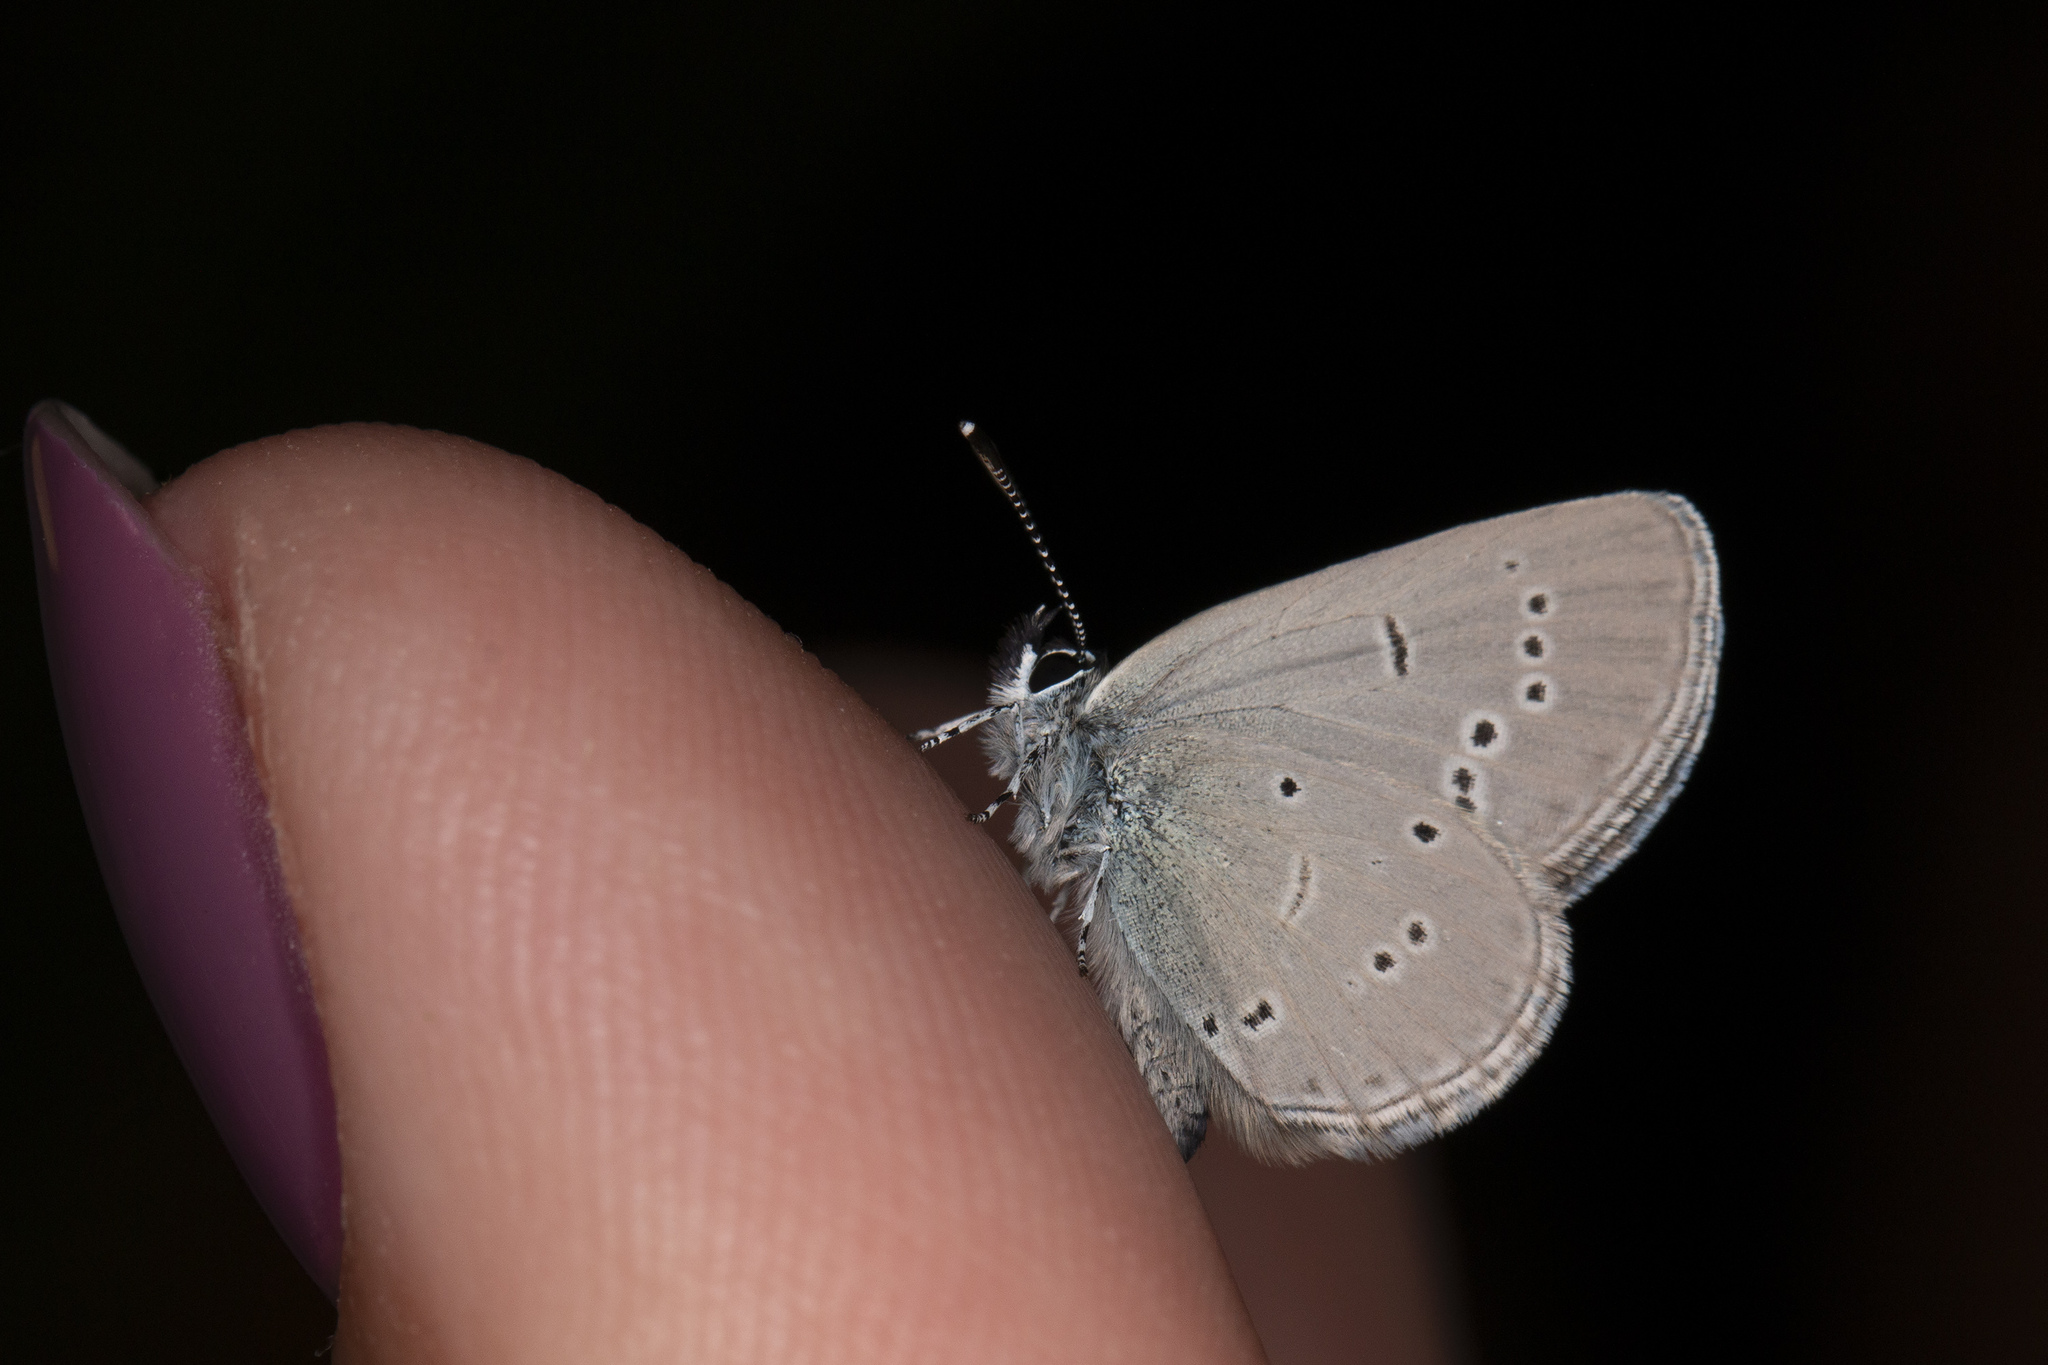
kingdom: Animalia
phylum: Arthropoda
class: Insecta
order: Lepidoptera
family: Lycaenidae
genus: Cupido
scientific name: Cupido minimus
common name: Small blue
